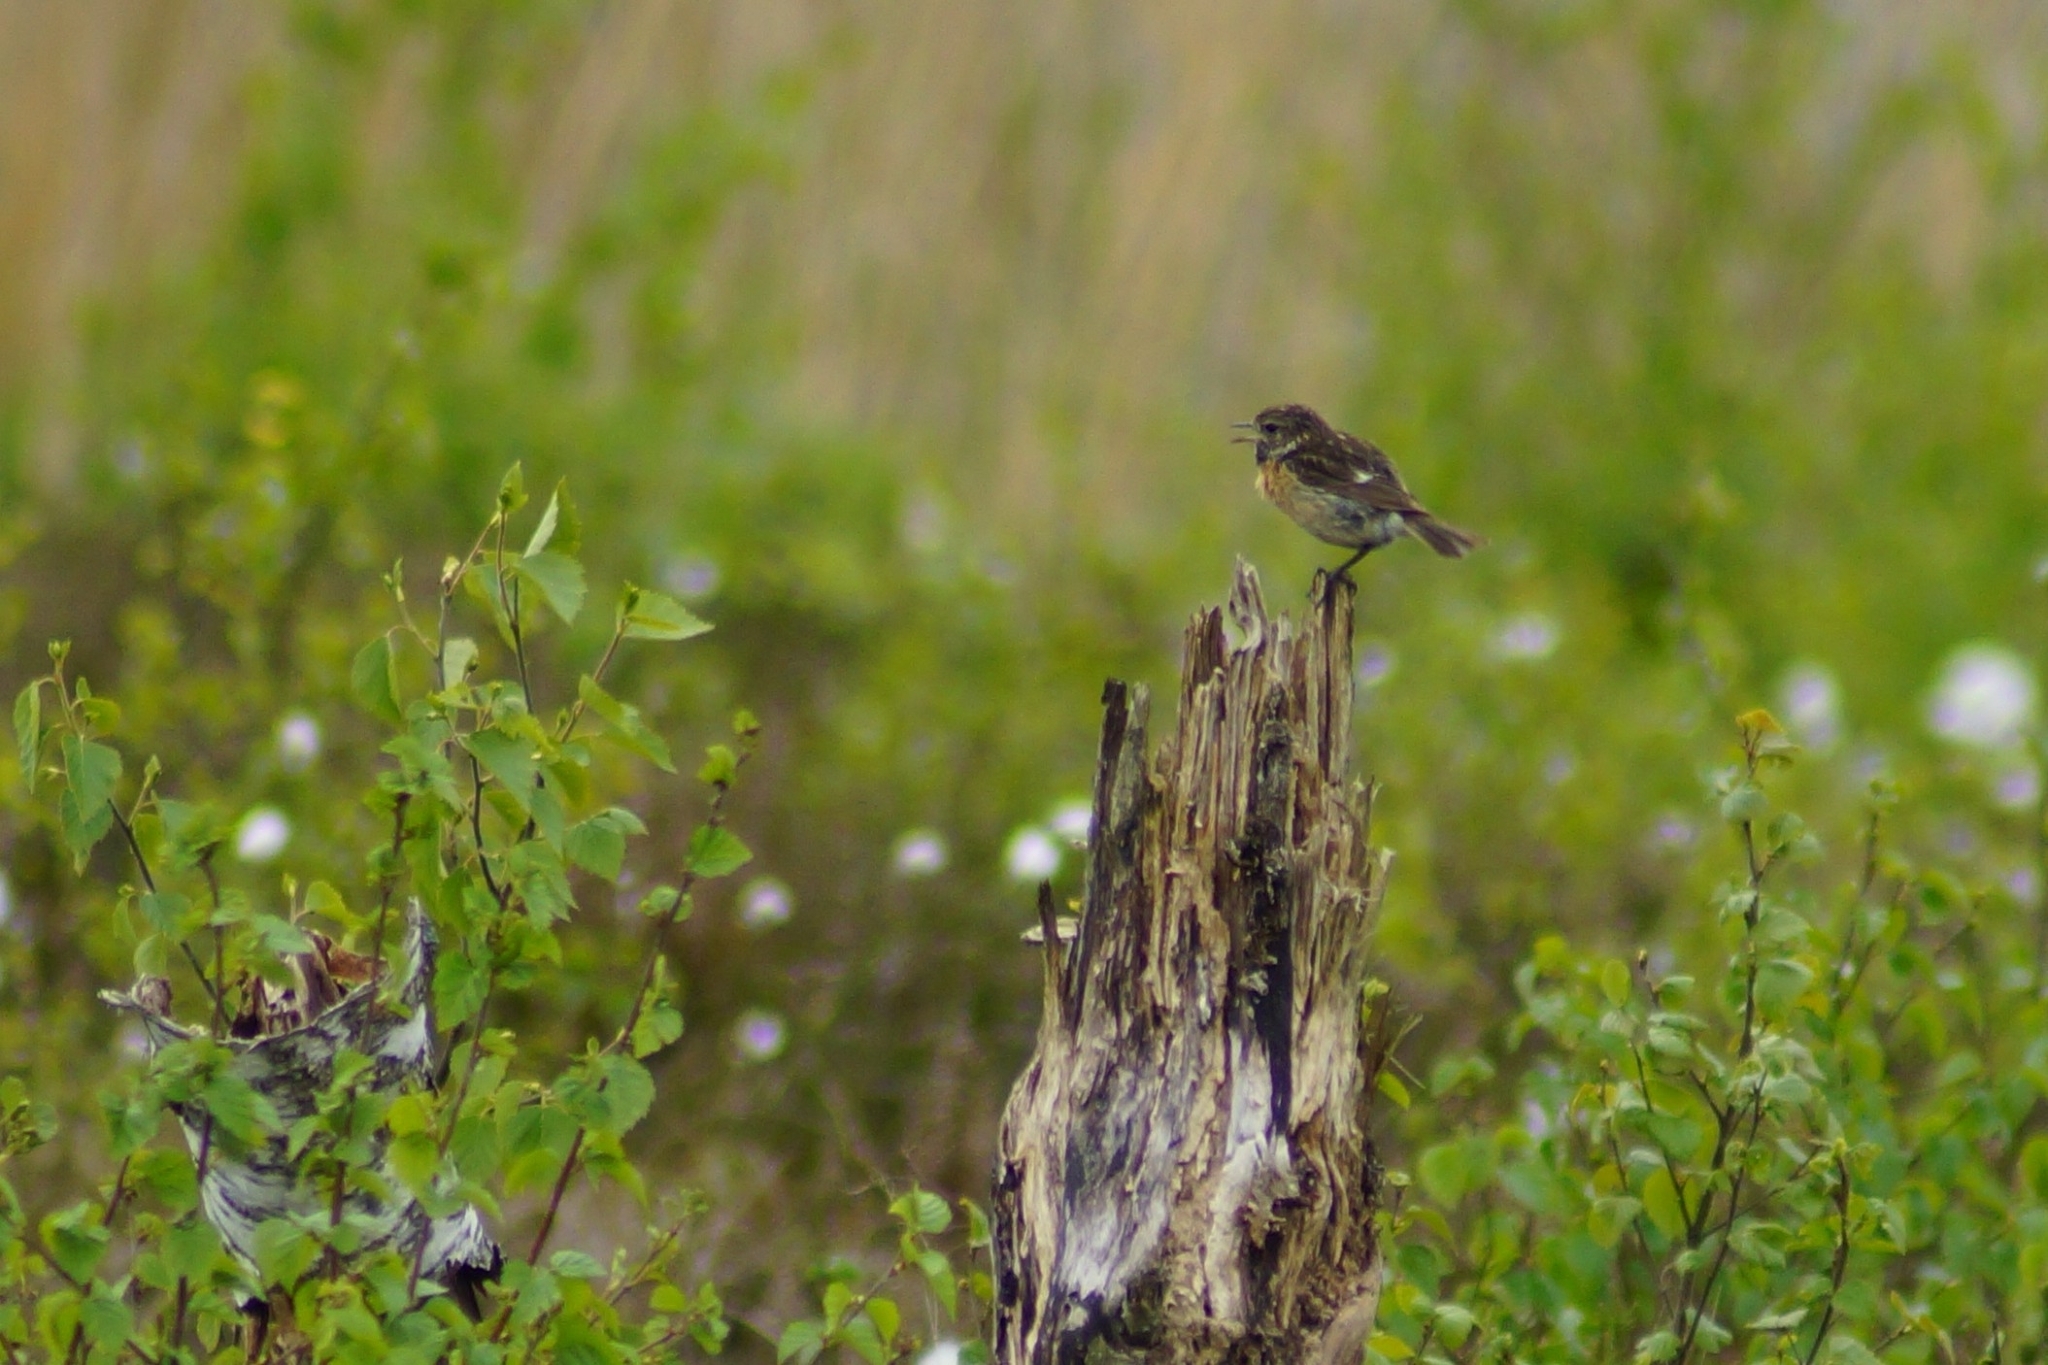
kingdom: Animalia
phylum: Chordata
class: Aves
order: Passeriformes
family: Muscicapidae
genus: Saxicola
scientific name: Saxicola rubicola
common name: European stonechat
